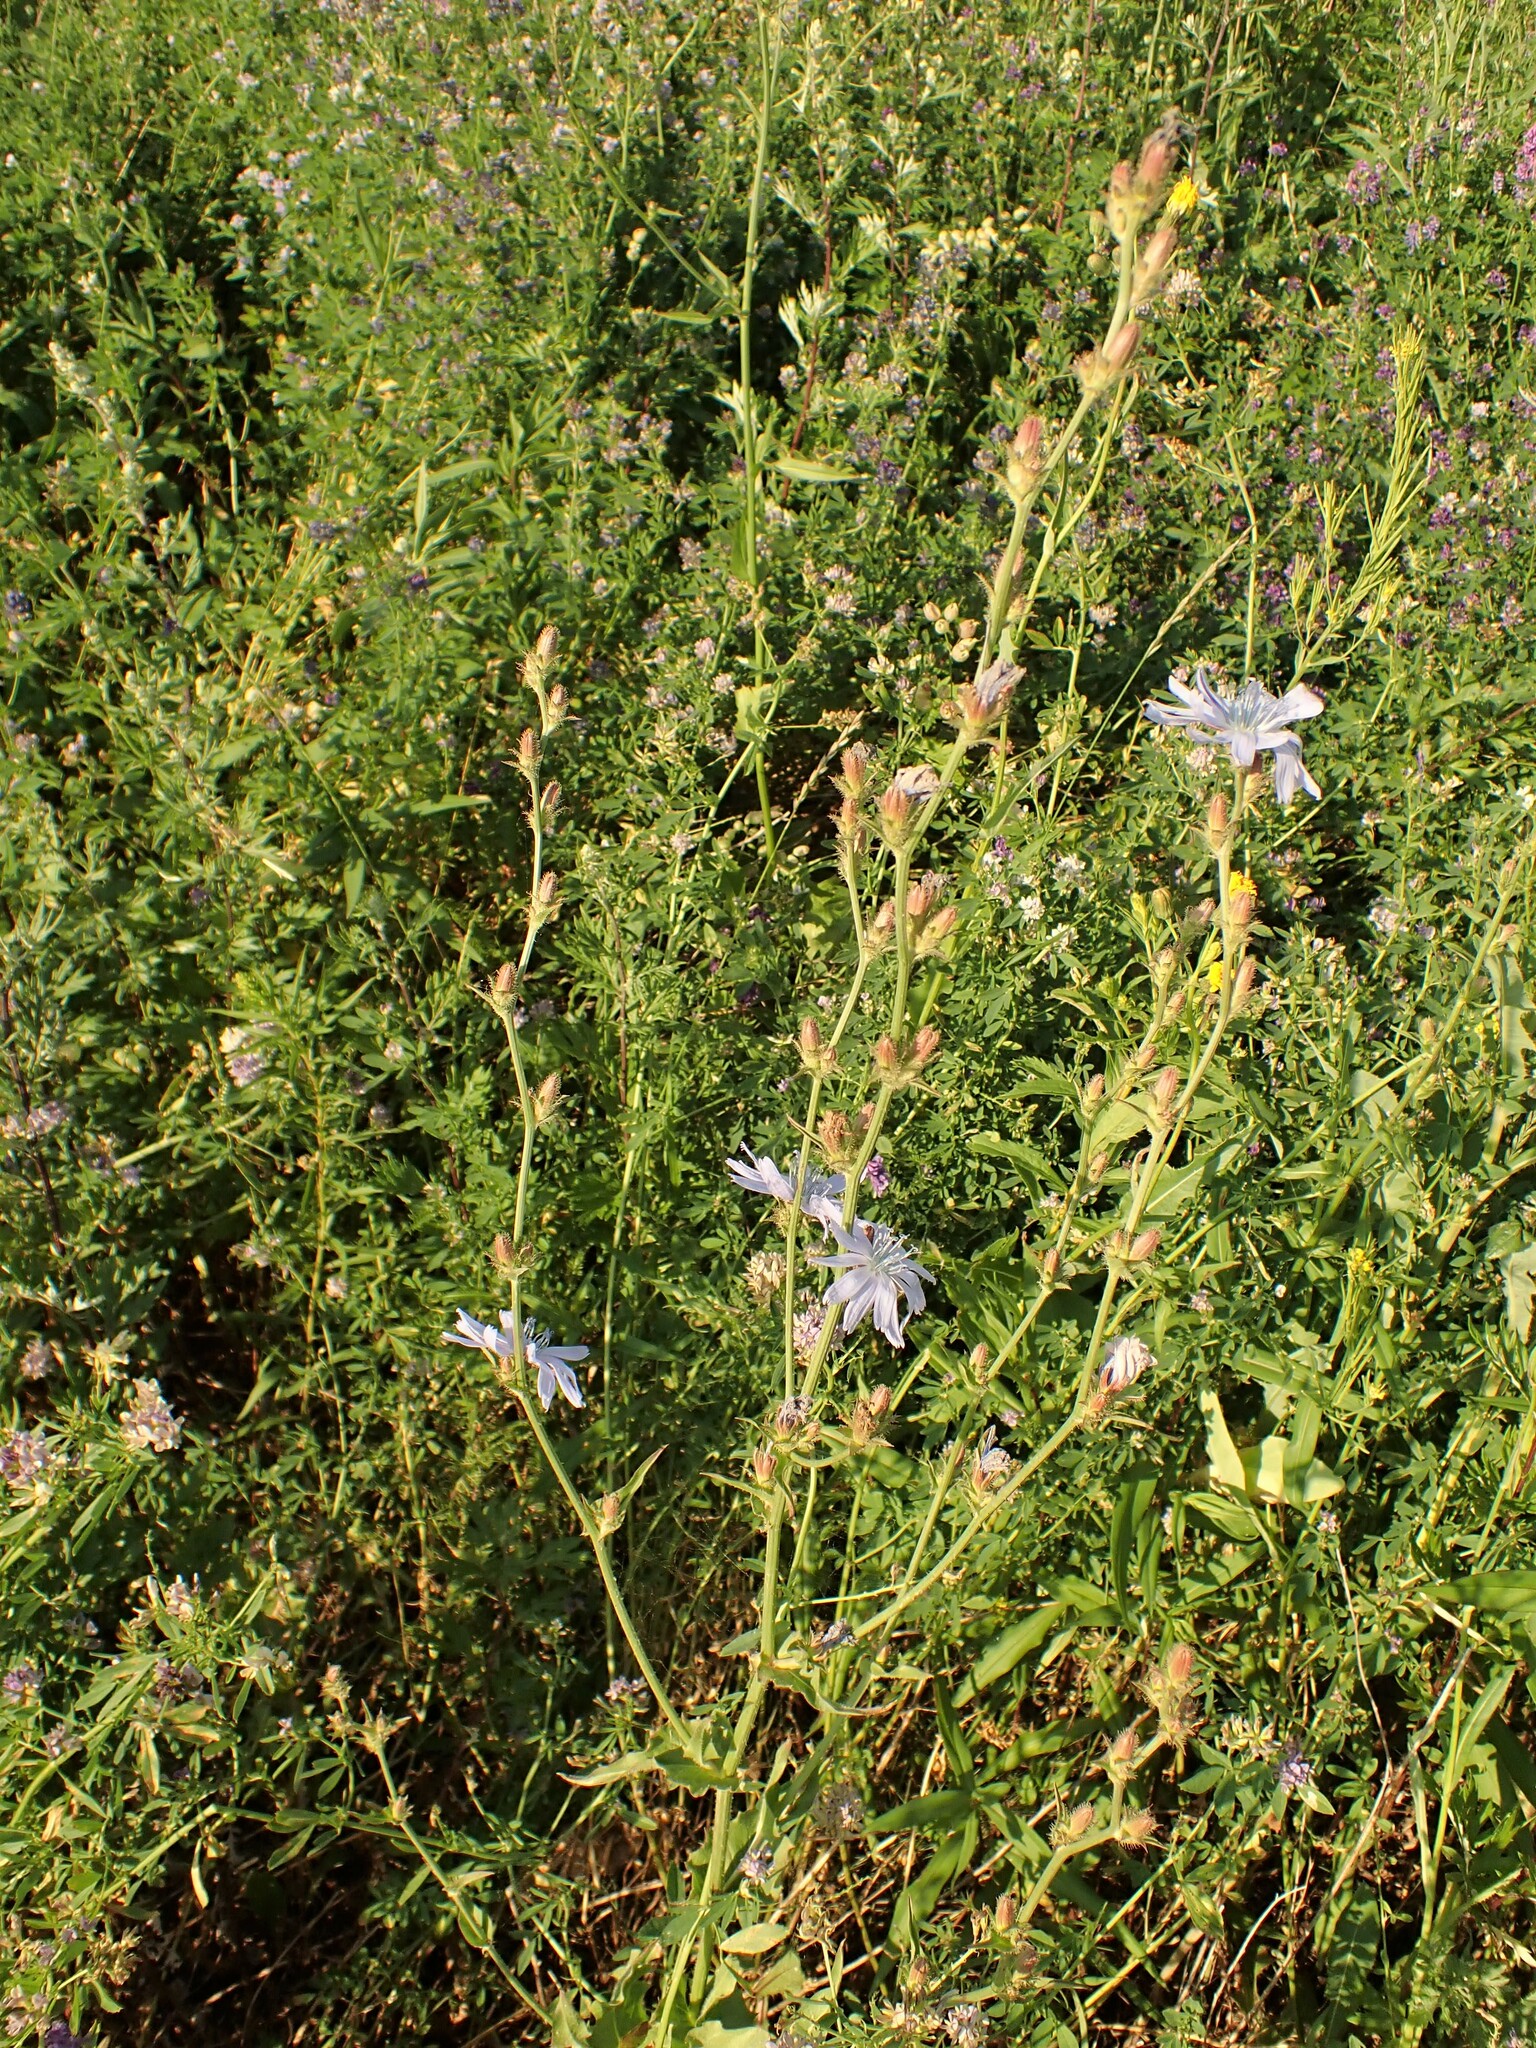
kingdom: Plantae
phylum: Tracheophyta
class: Magnoliopsida
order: Asterales
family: Asteraceae
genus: Cichorium
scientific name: Cichorium intybus
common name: Chicory
